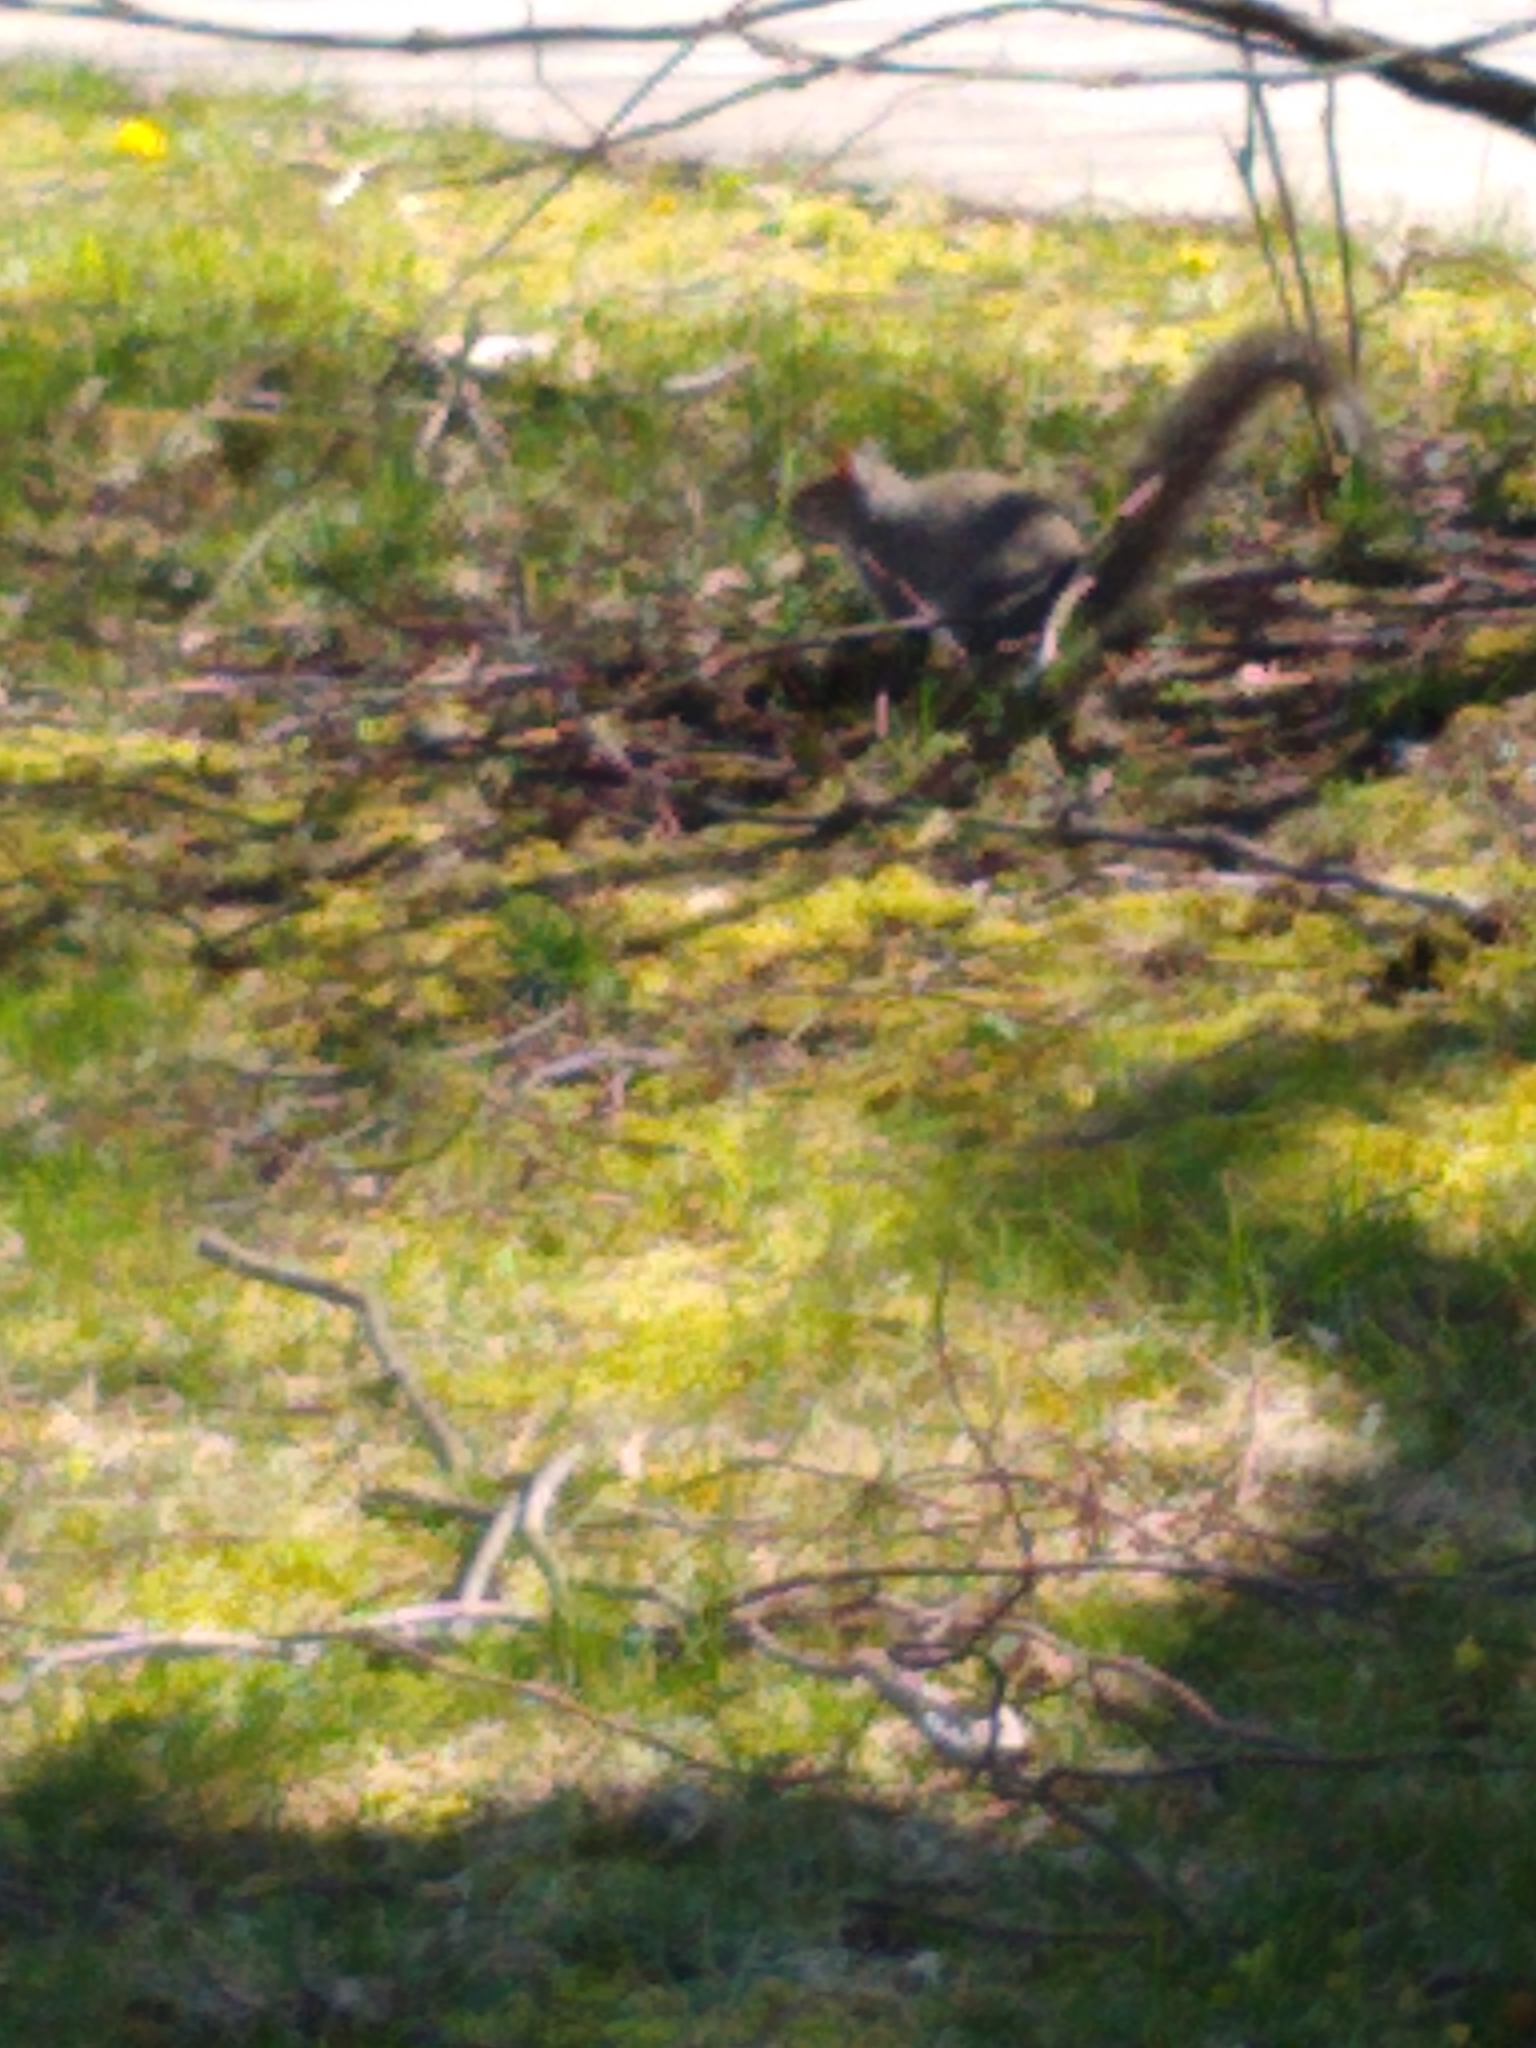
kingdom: Animalia
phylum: Chordata
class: Mammalia
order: Rodentia
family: Sciuridae
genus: Sciurus
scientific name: Sciurus carolinensis
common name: Eastern gray squirrel
